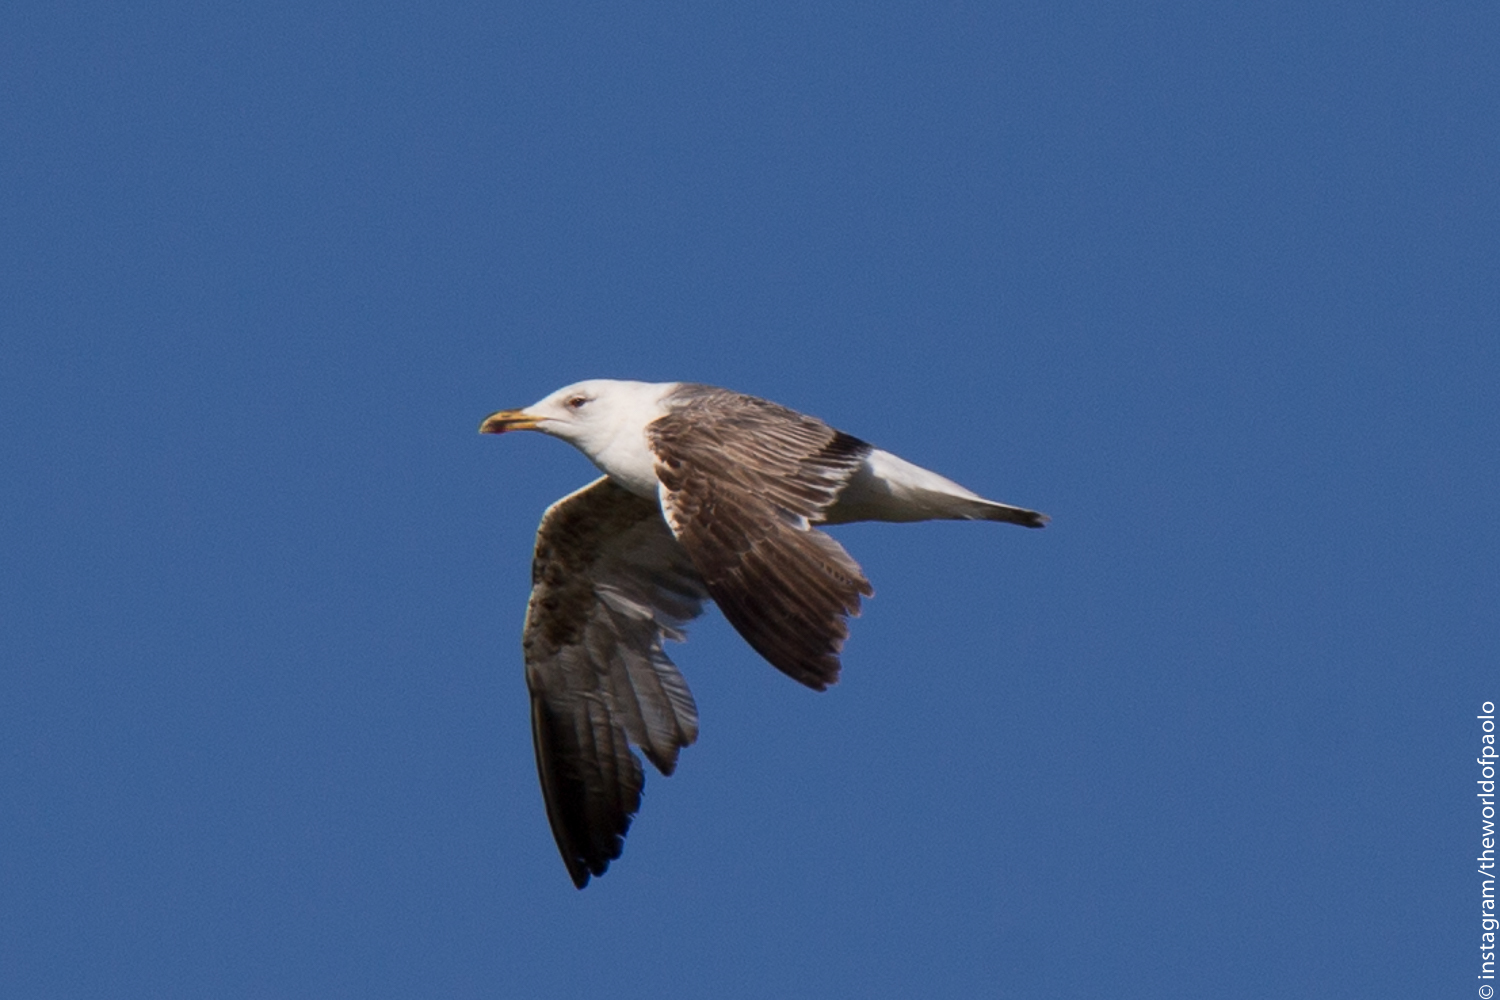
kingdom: Animalia
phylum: Chordata
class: Aves
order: Charadriiformes
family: Laridae
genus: Larus
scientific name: Larus fuscus
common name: Lesser black-backed gull
